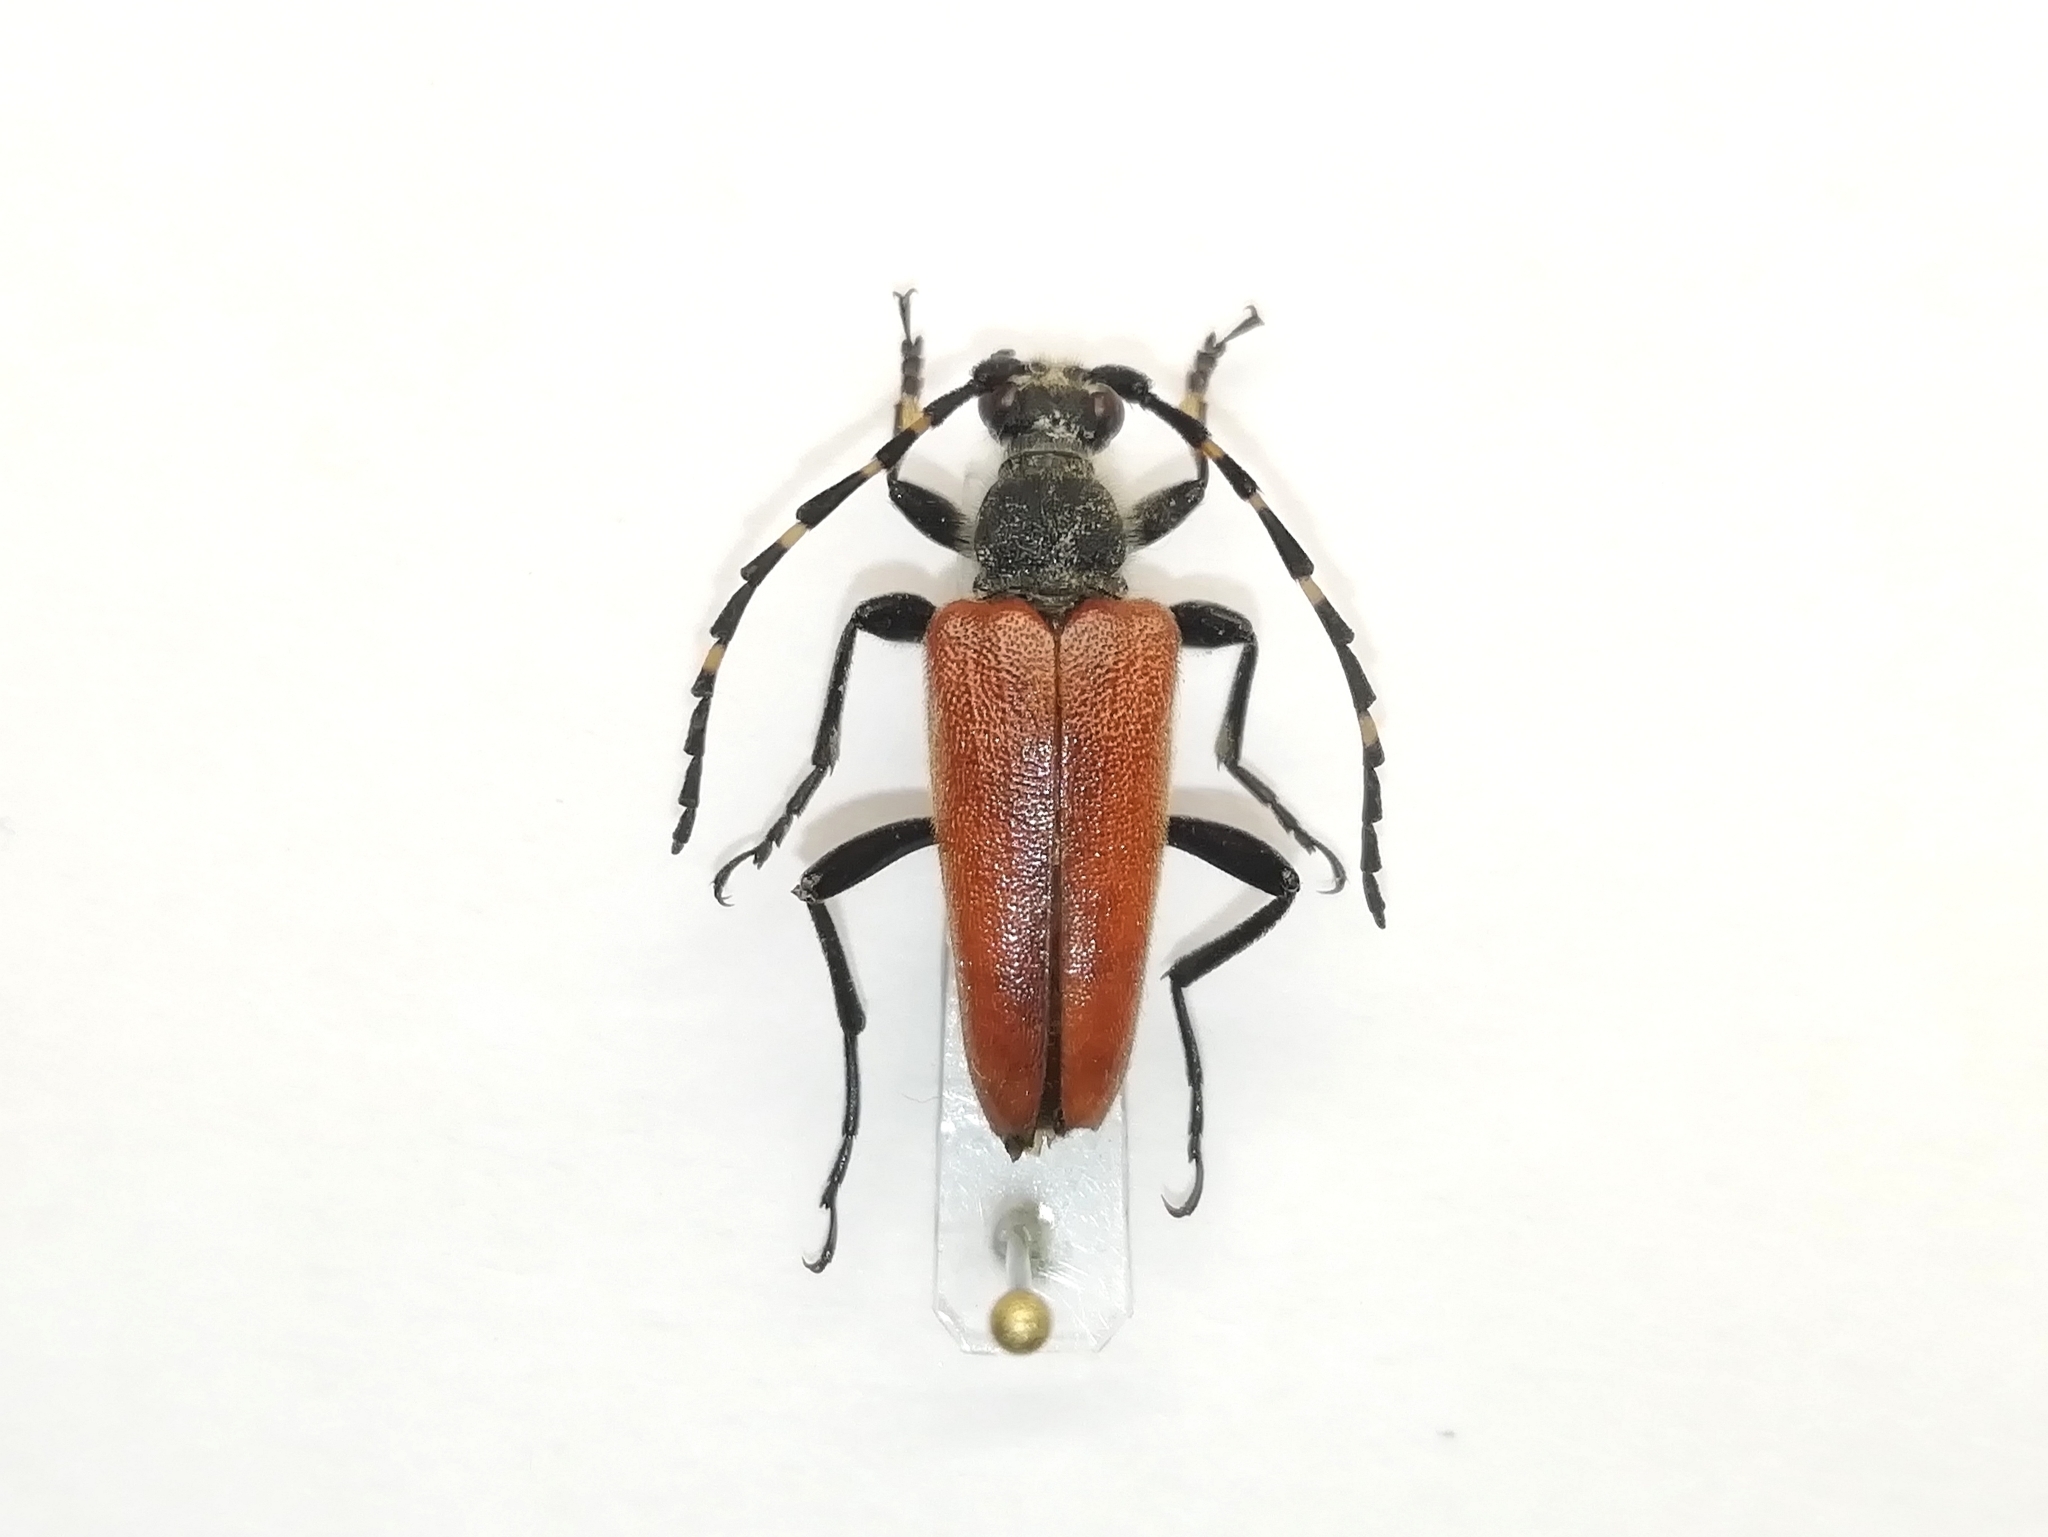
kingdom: Animalia
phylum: Arthropoda
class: Insecta
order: Coleoptera
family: Cerambycidae
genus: Stictoleptura
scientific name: Stictoleptura variicornis
